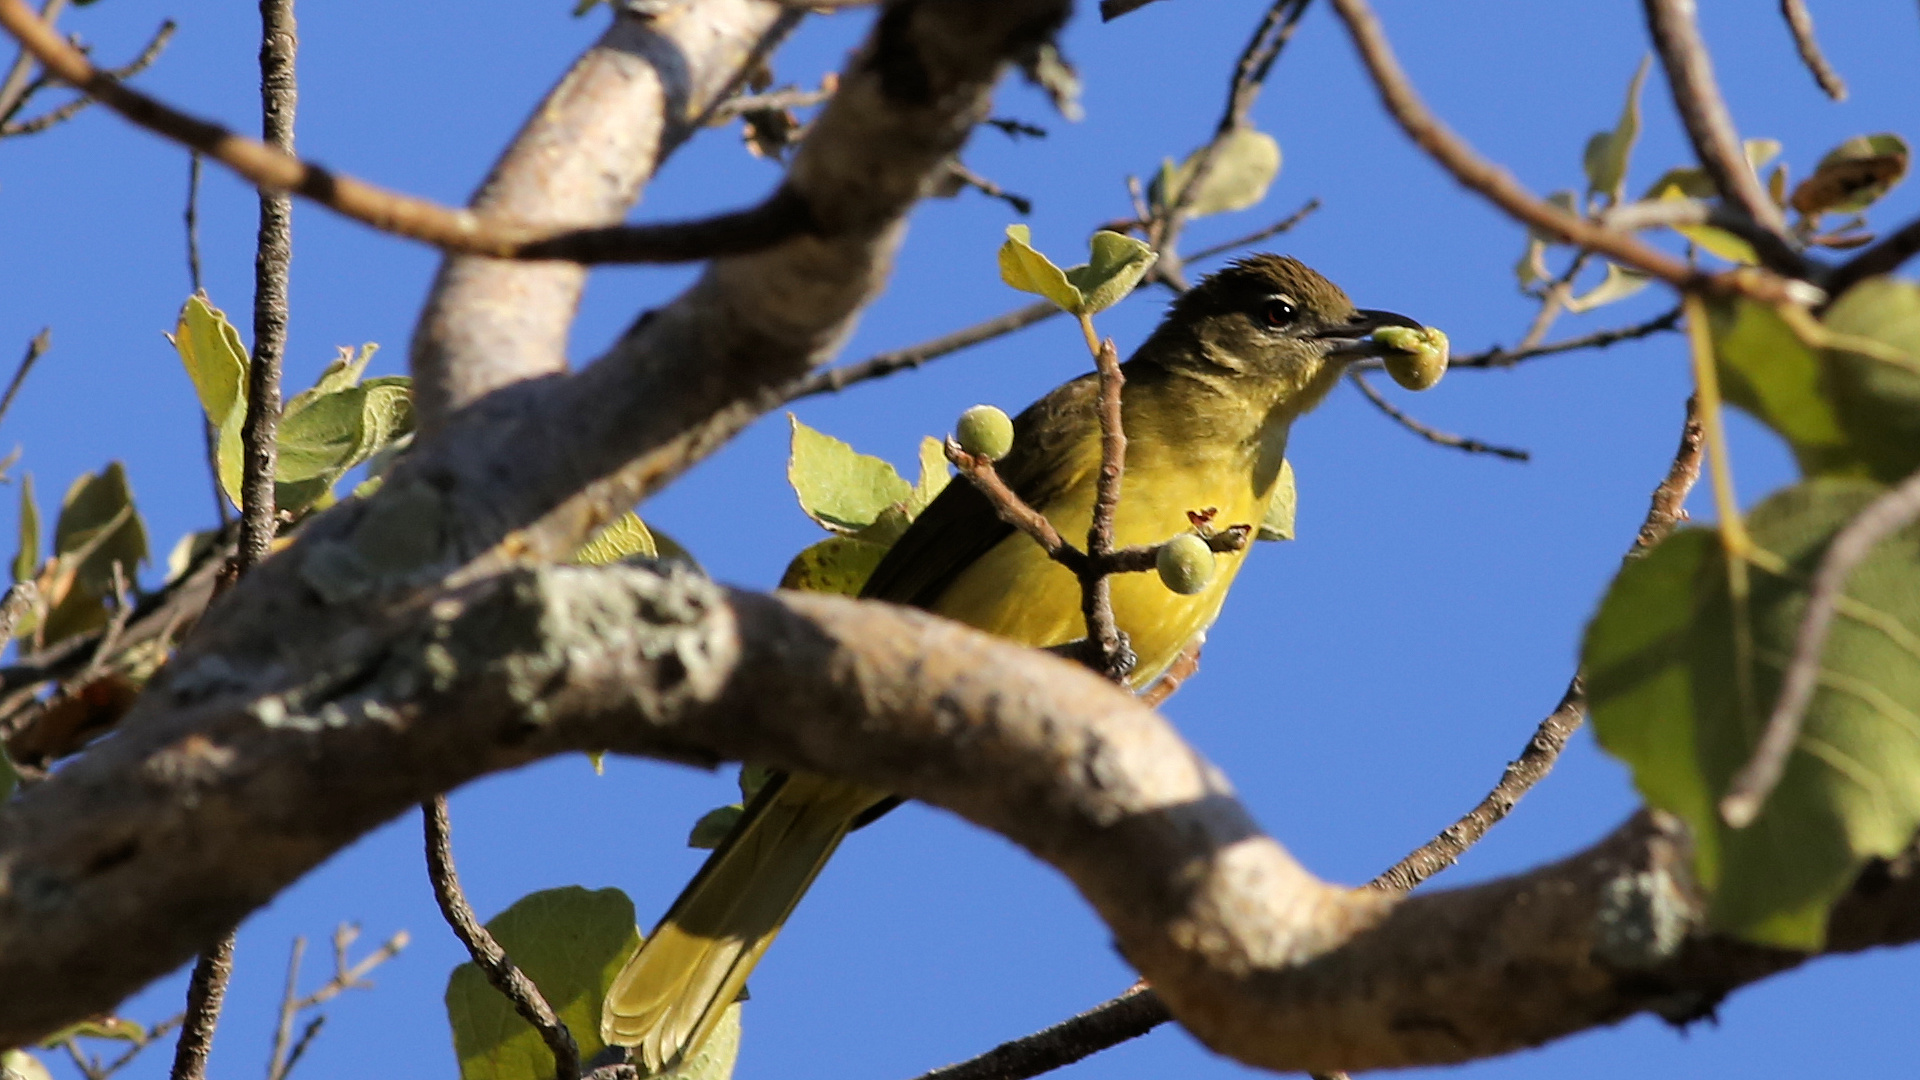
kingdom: Animalia
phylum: Chordata
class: Aves
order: Passeriformes
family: Pycnonotidae
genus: Chlorocichla
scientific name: Chlorocichla flaviventris
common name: Yellow-bellied greenbul
